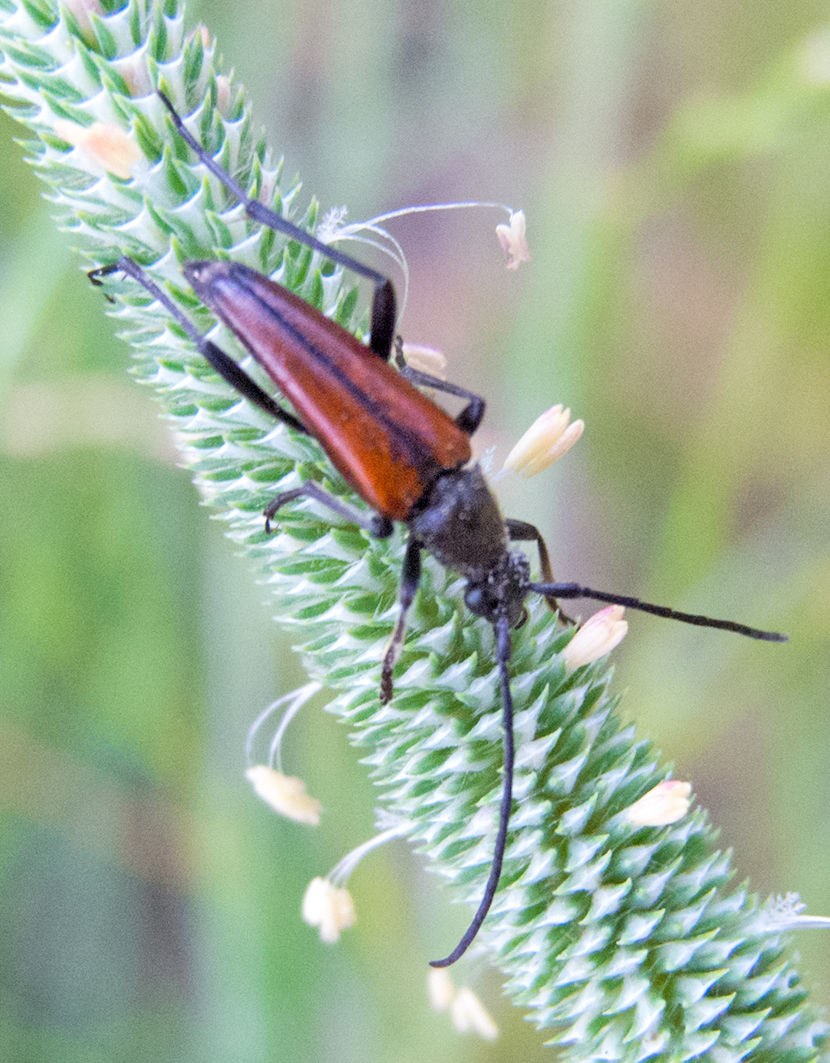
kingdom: Animalia
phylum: Arthropoda
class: Insecta
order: Coleoptera
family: Cerambycidae
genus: Stenurella
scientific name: Stenurella bifasciata
